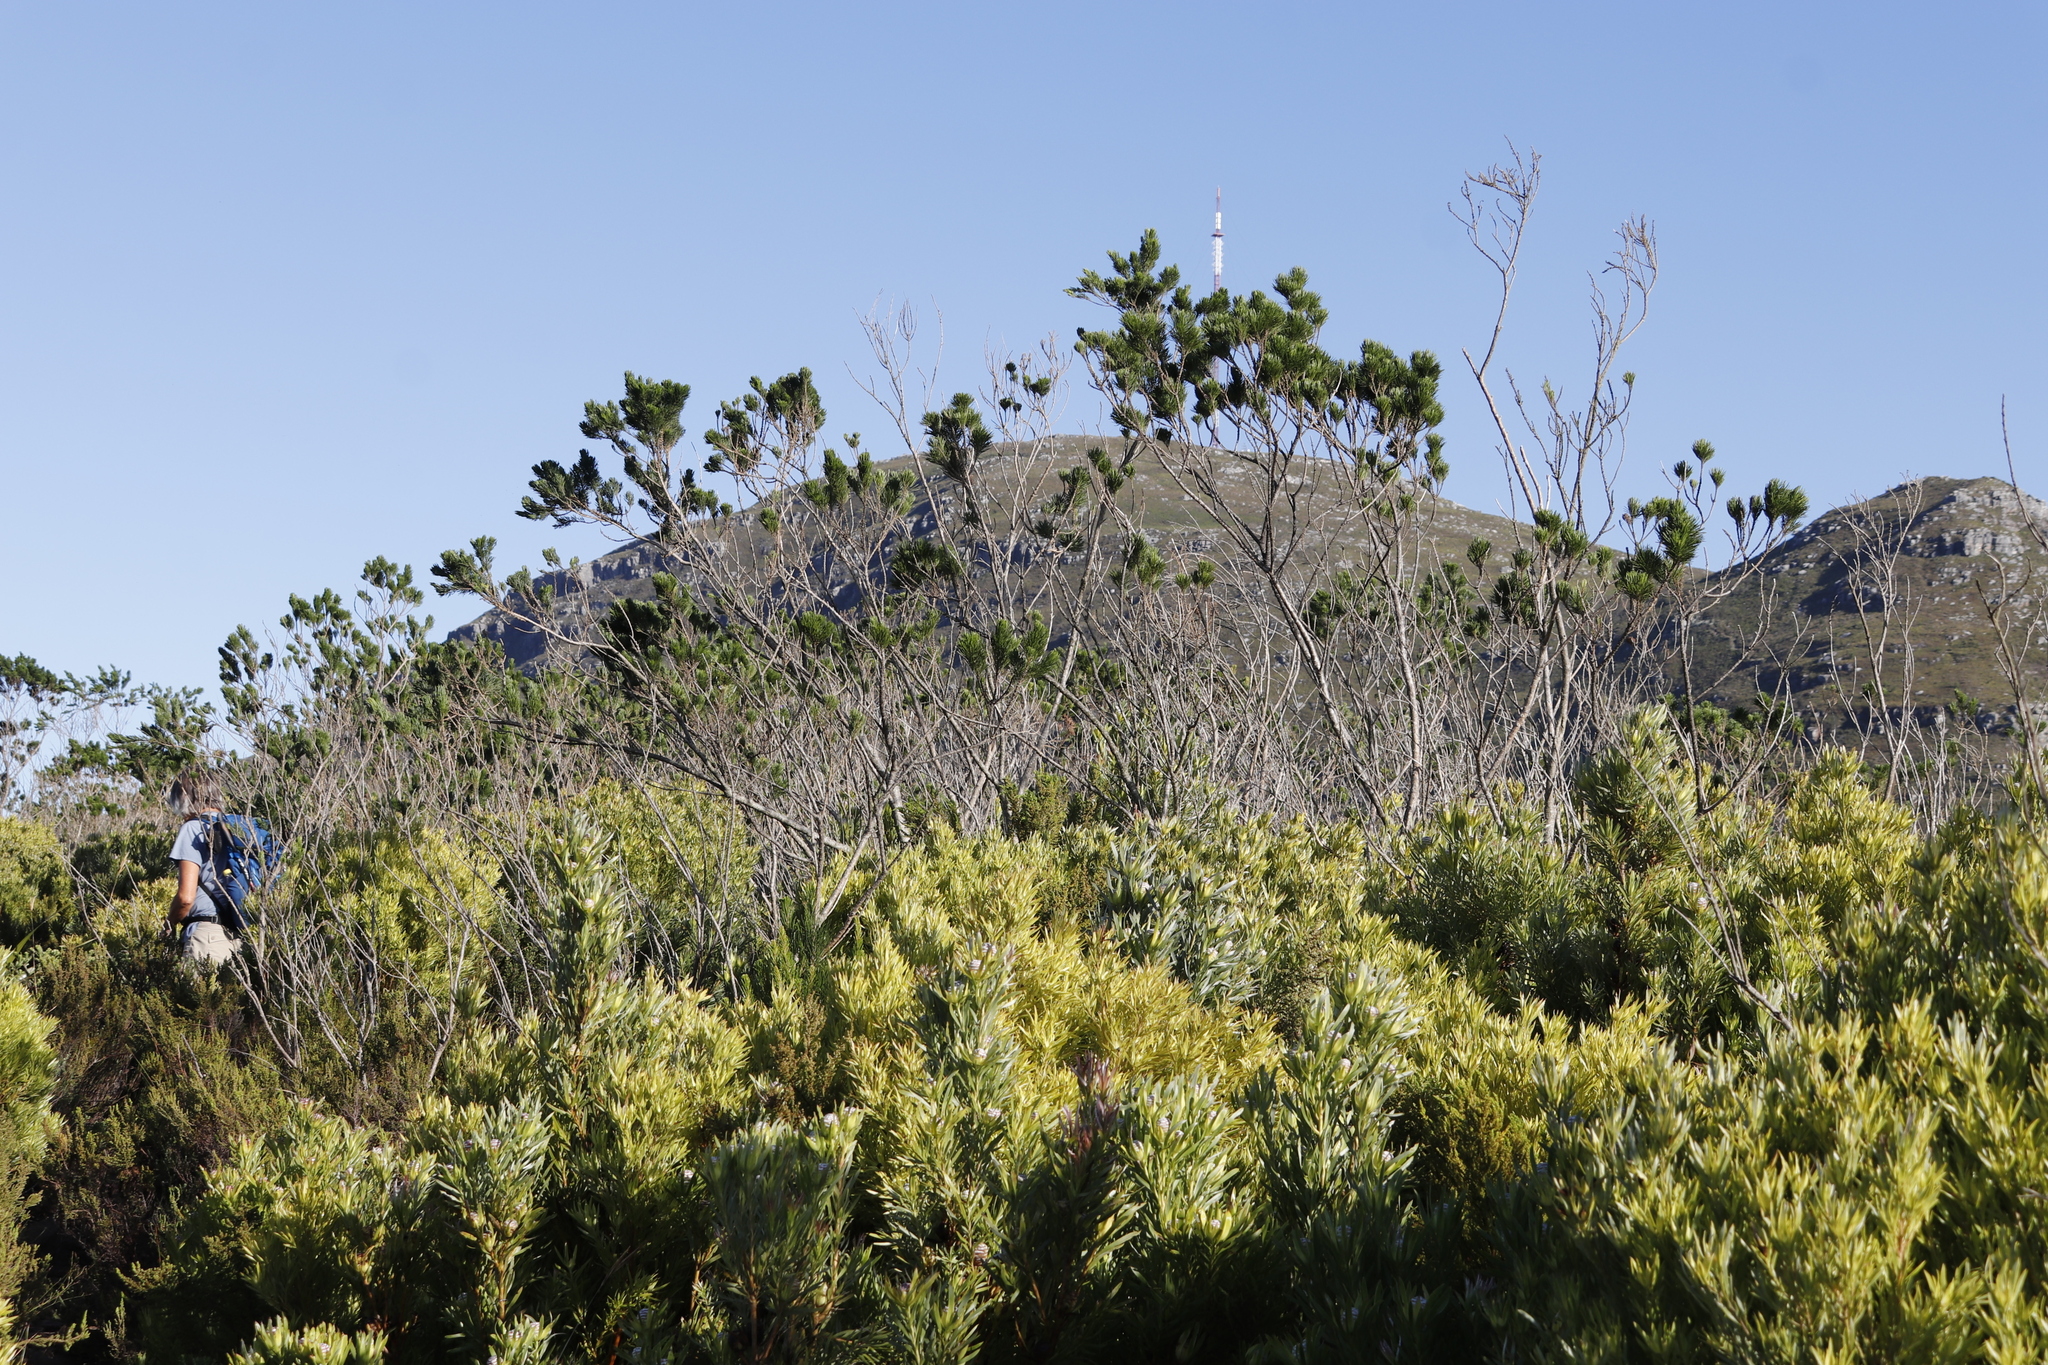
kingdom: Plantae
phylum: Tracheophyta
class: Magnoliopsida
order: Fabales
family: Fabaceae
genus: Psoralea
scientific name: Psoralea pinnata
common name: African scurfpea
